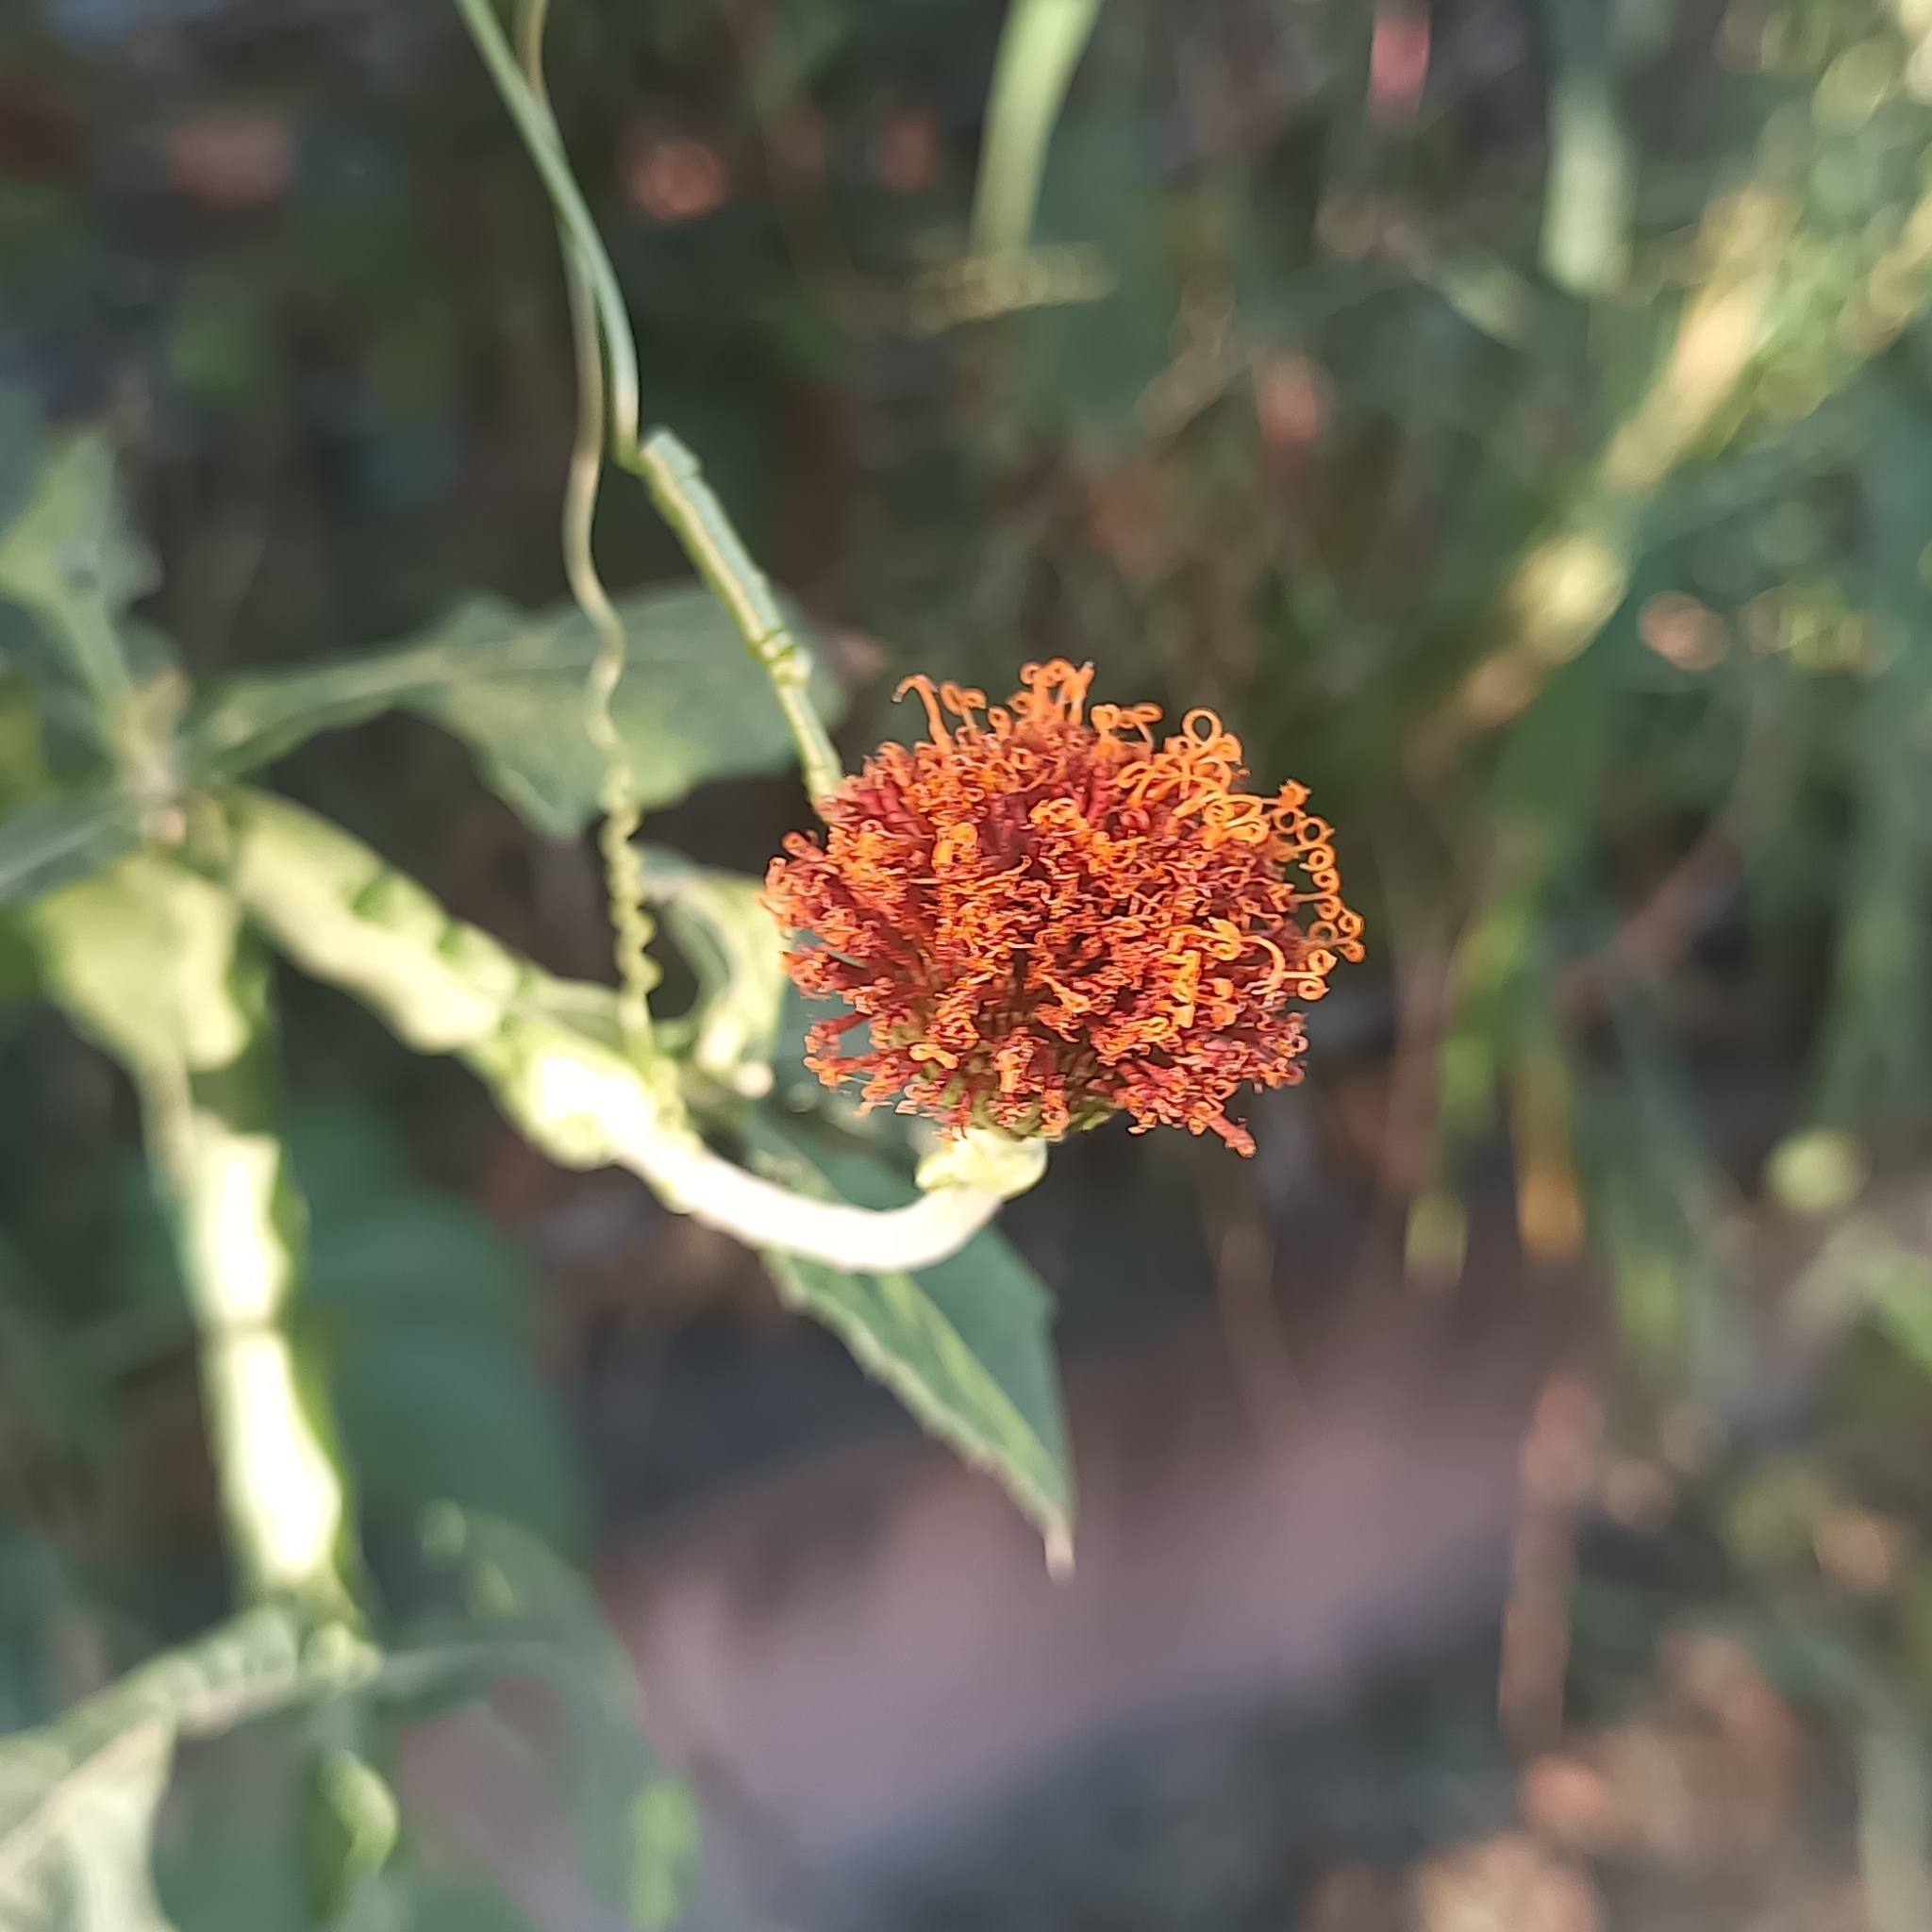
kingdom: Plantae
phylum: Tracheophyta
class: Magnoliopsida
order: Asterales
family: Asteraceae
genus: Verbesina
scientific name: Verbesina crocata
